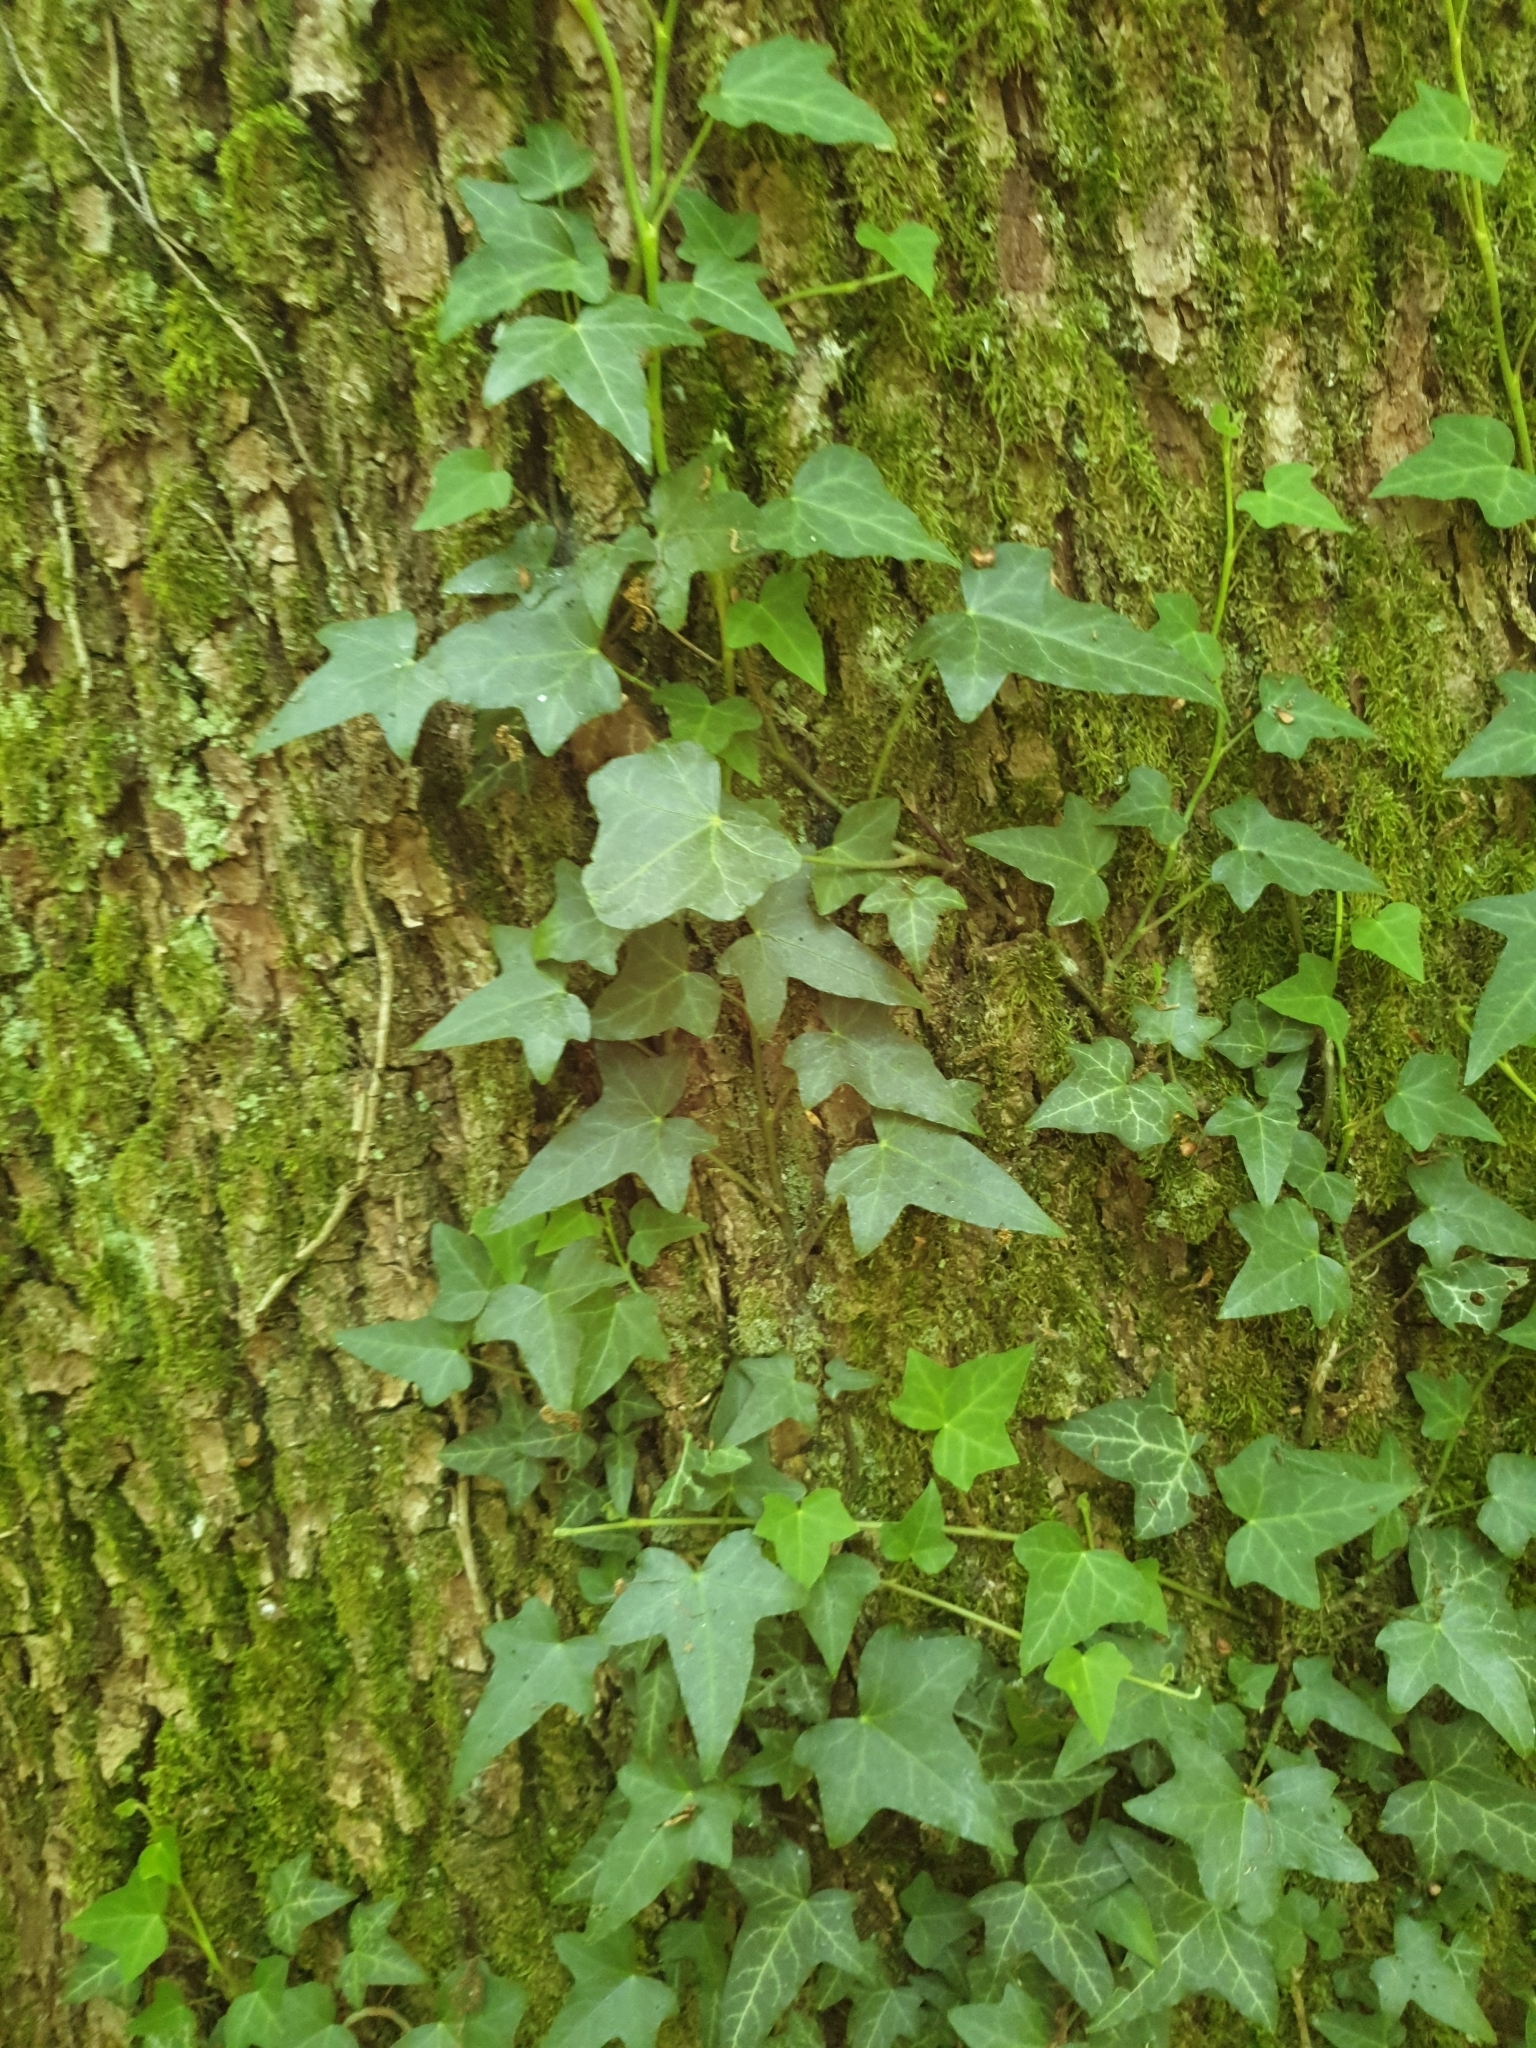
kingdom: Plantae
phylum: Tracheophyta
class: Magnoliopsida
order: Apiales
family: Araliaceae
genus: Hedera
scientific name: Hedera helix
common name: Ivy
